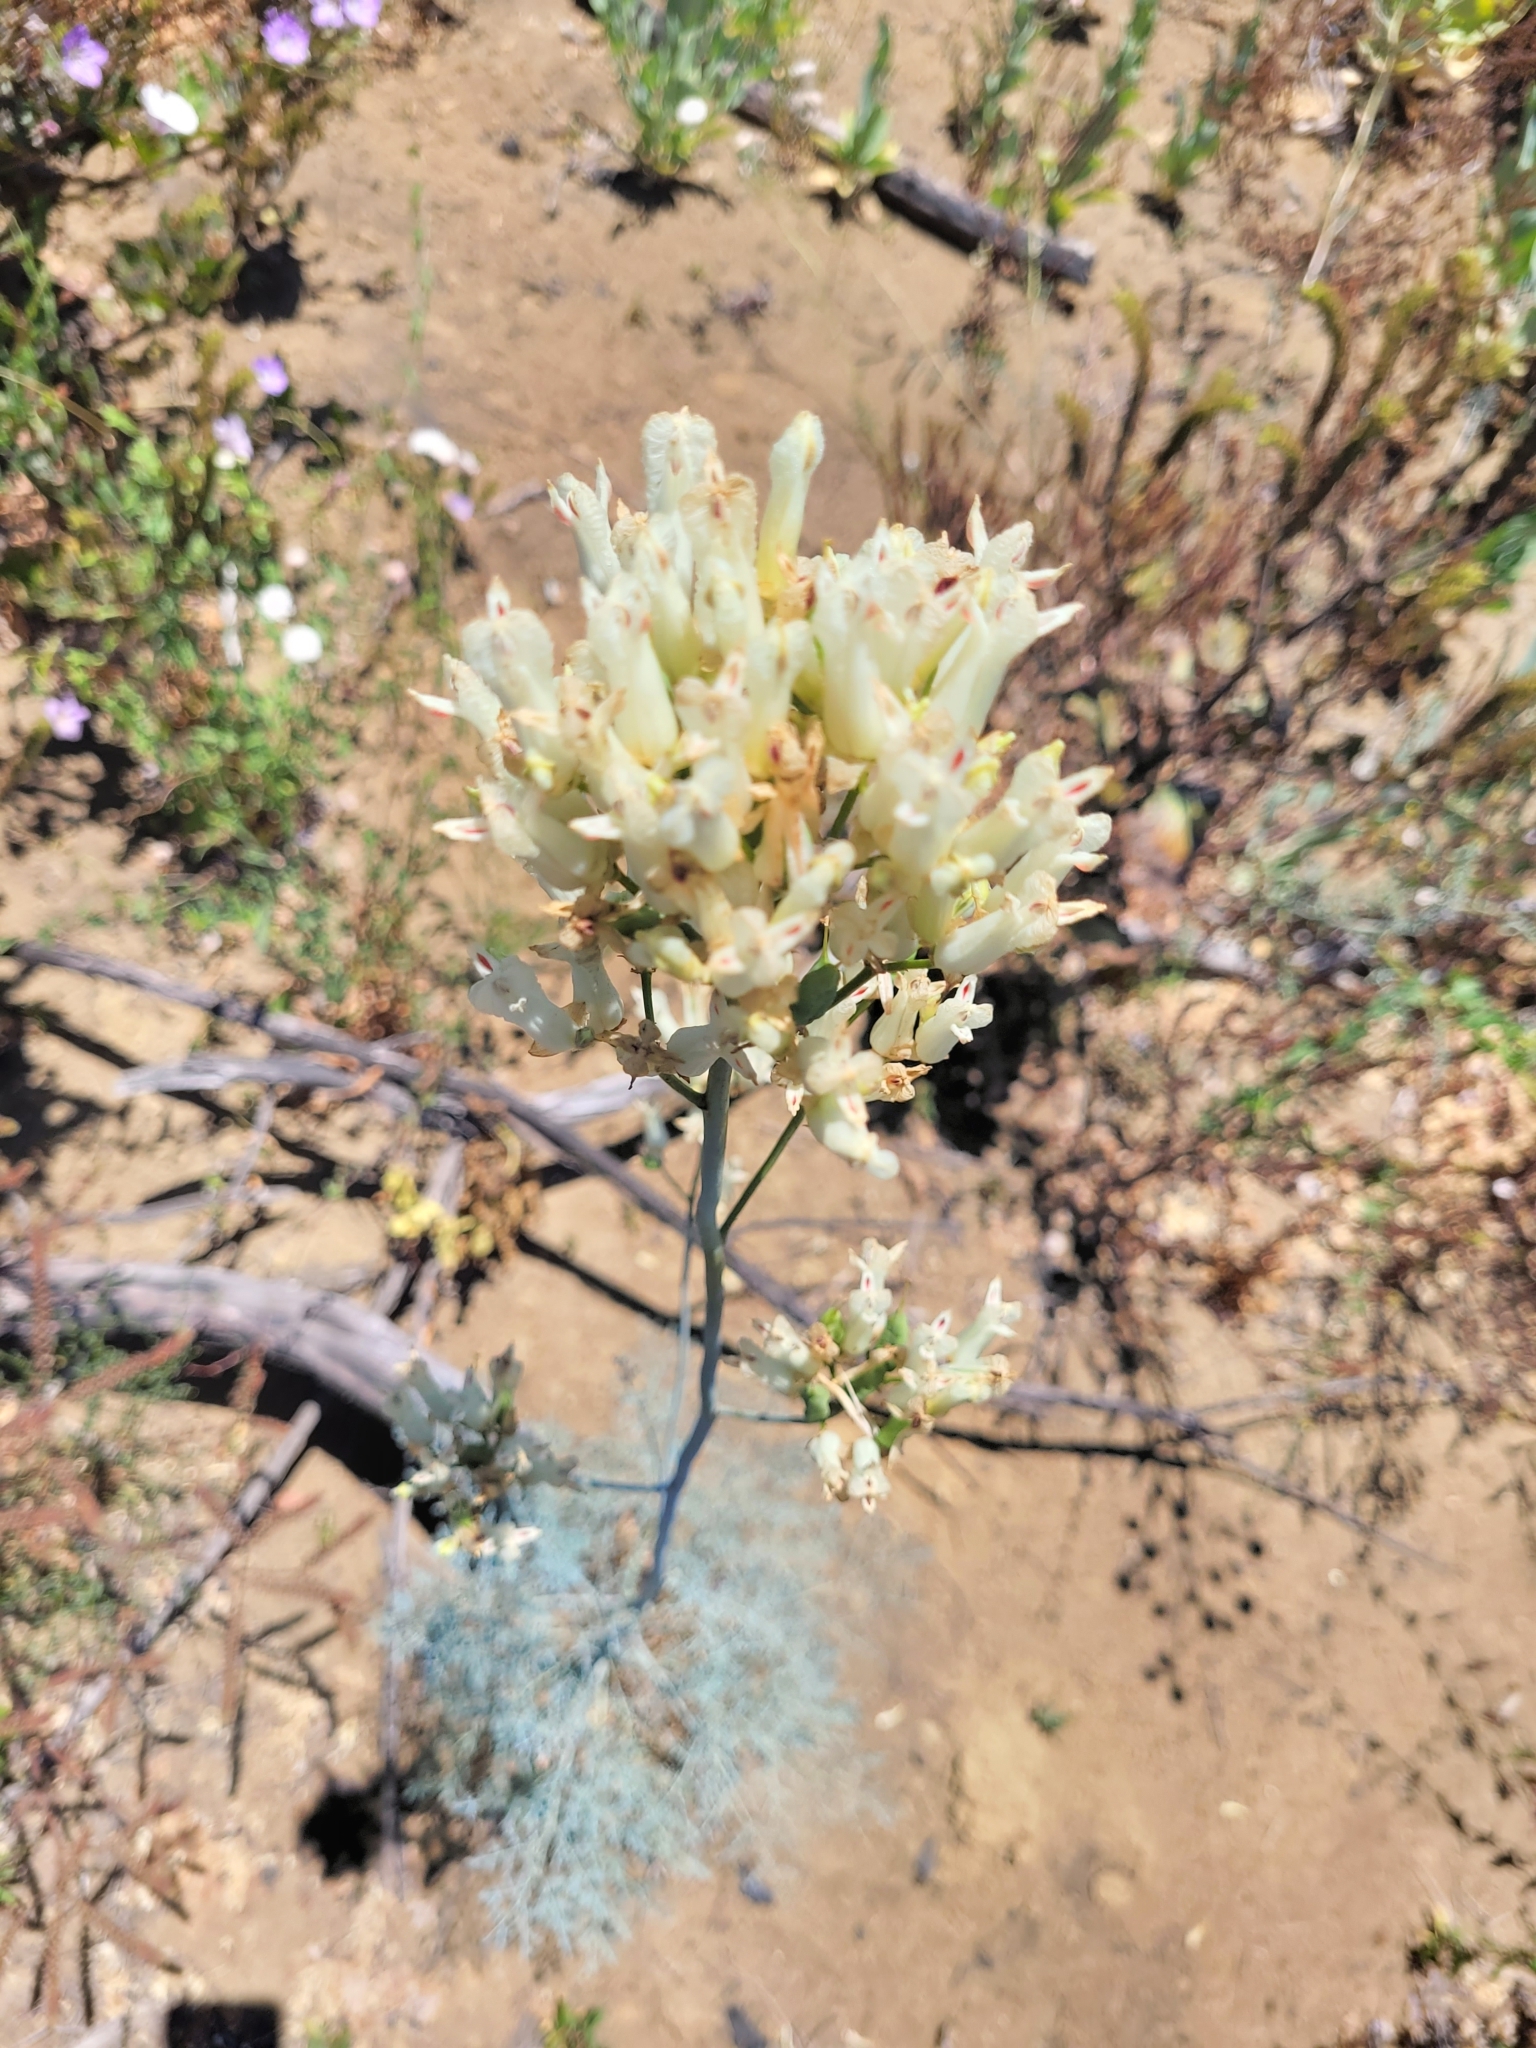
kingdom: Plantae
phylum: Tracheophyta
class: Magnoliopsida
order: Ranunculales
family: Papaveraceae
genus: Ehrendorferia
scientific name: Ehrendorferia ochroleuca
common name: White eardrops
